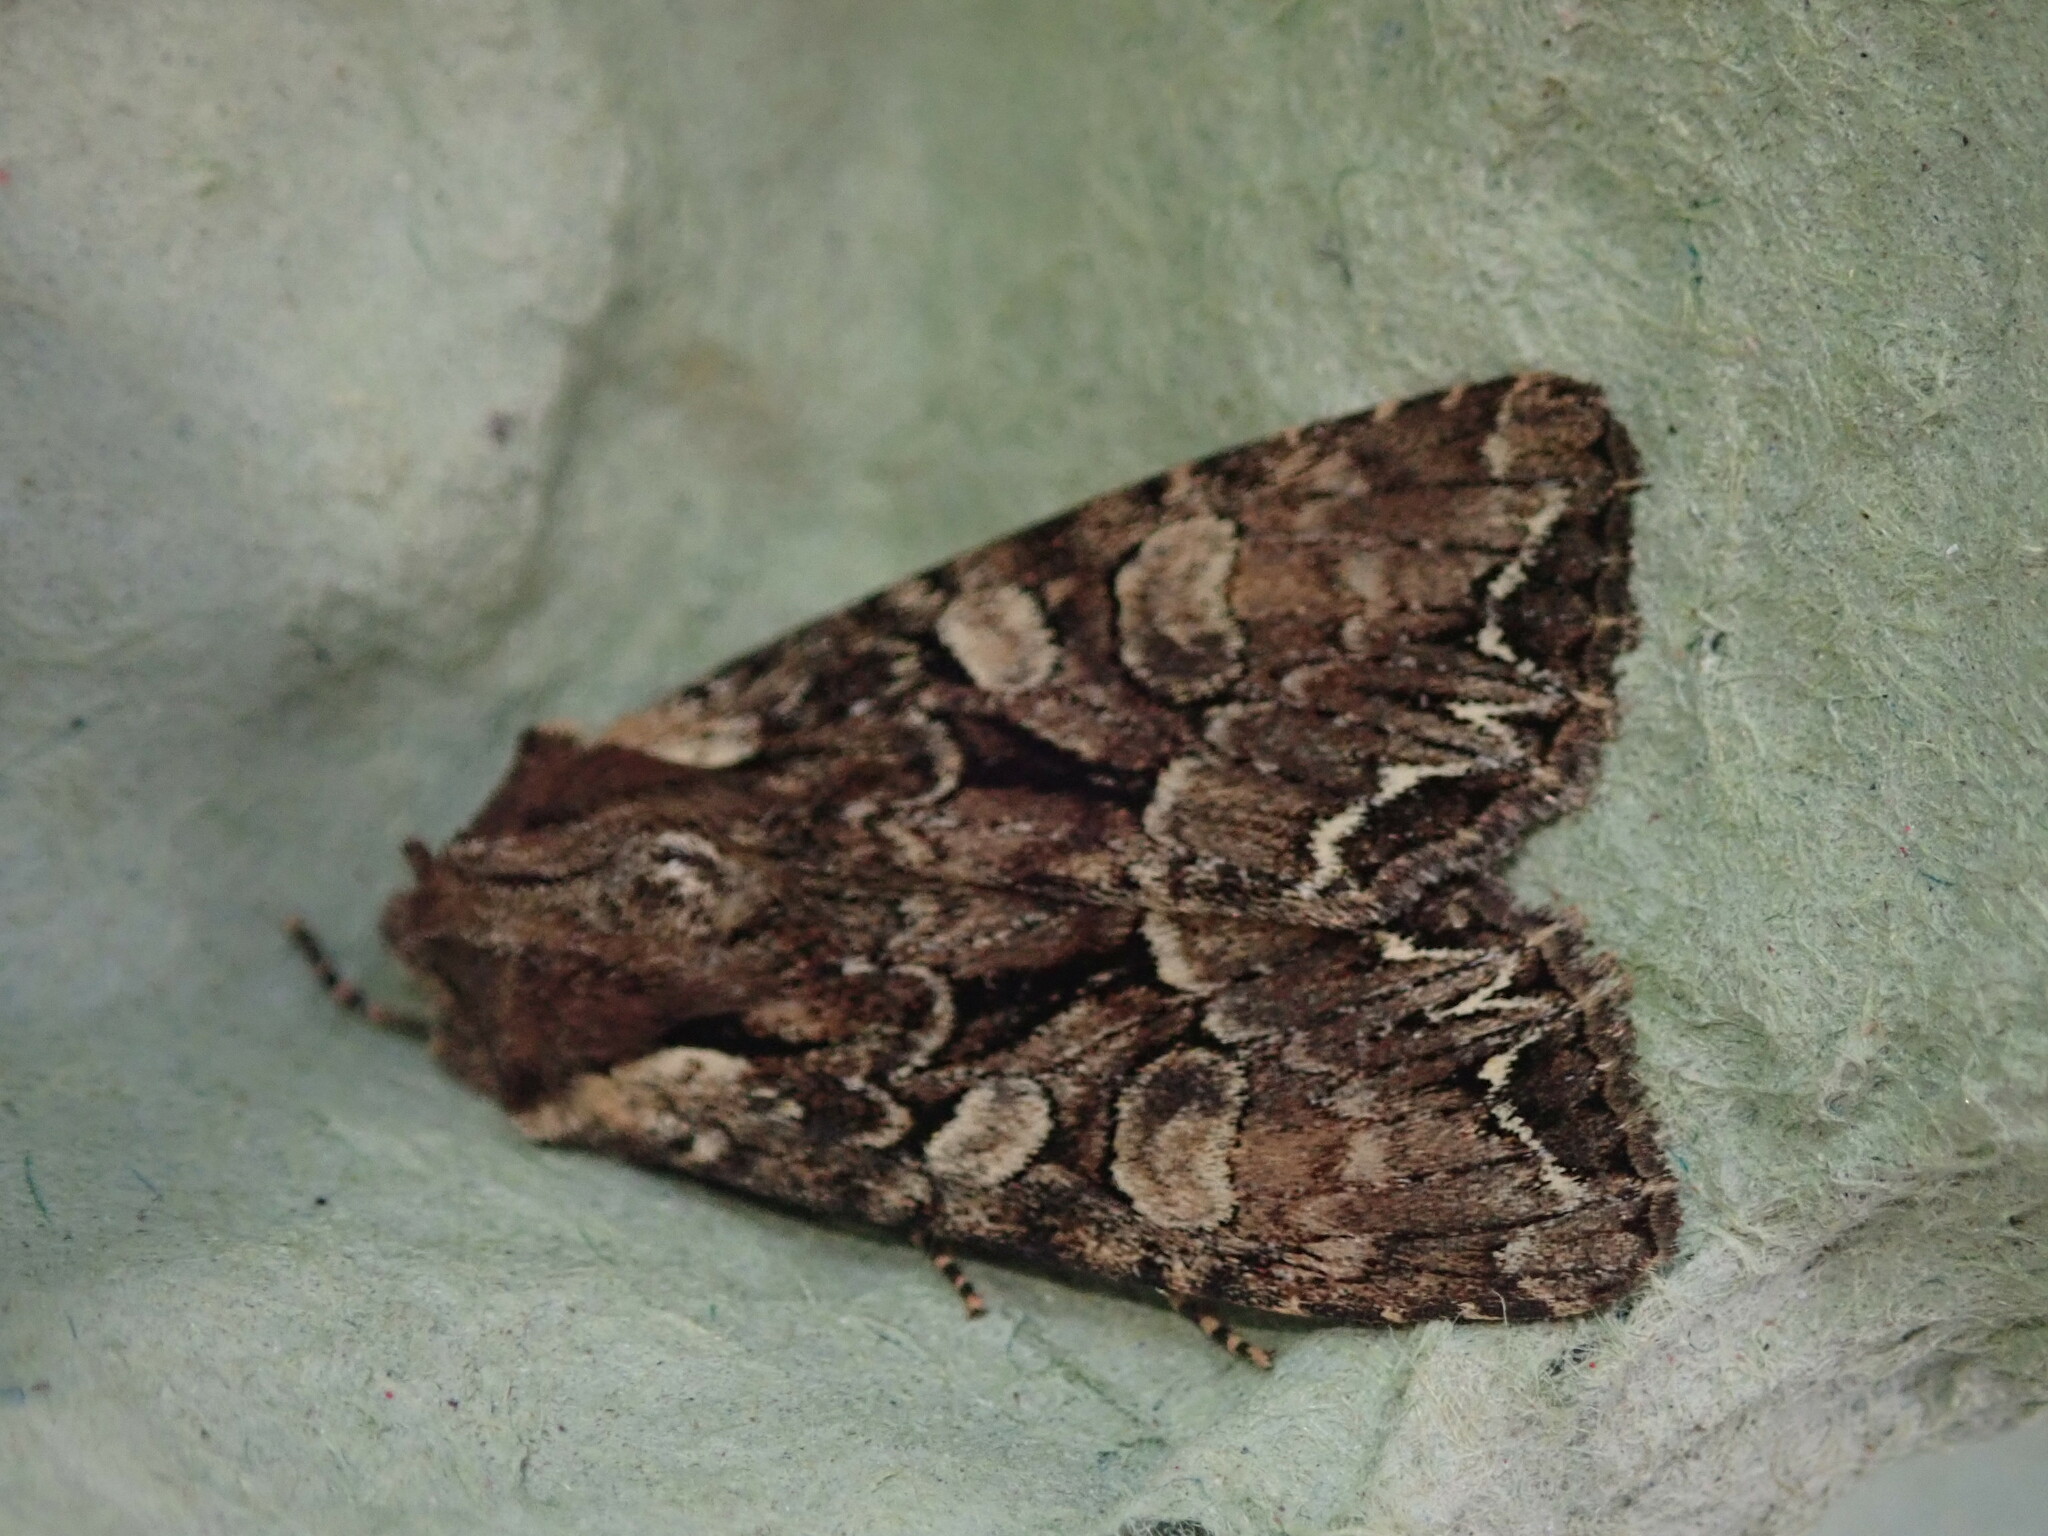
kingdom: Animalia
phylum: Arthropoda
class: Insecta
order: Lepidoptera
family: Noctuidae
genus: Lacanobia
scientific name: Lacanobia thalassina
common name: Pale-shouldered brocade
